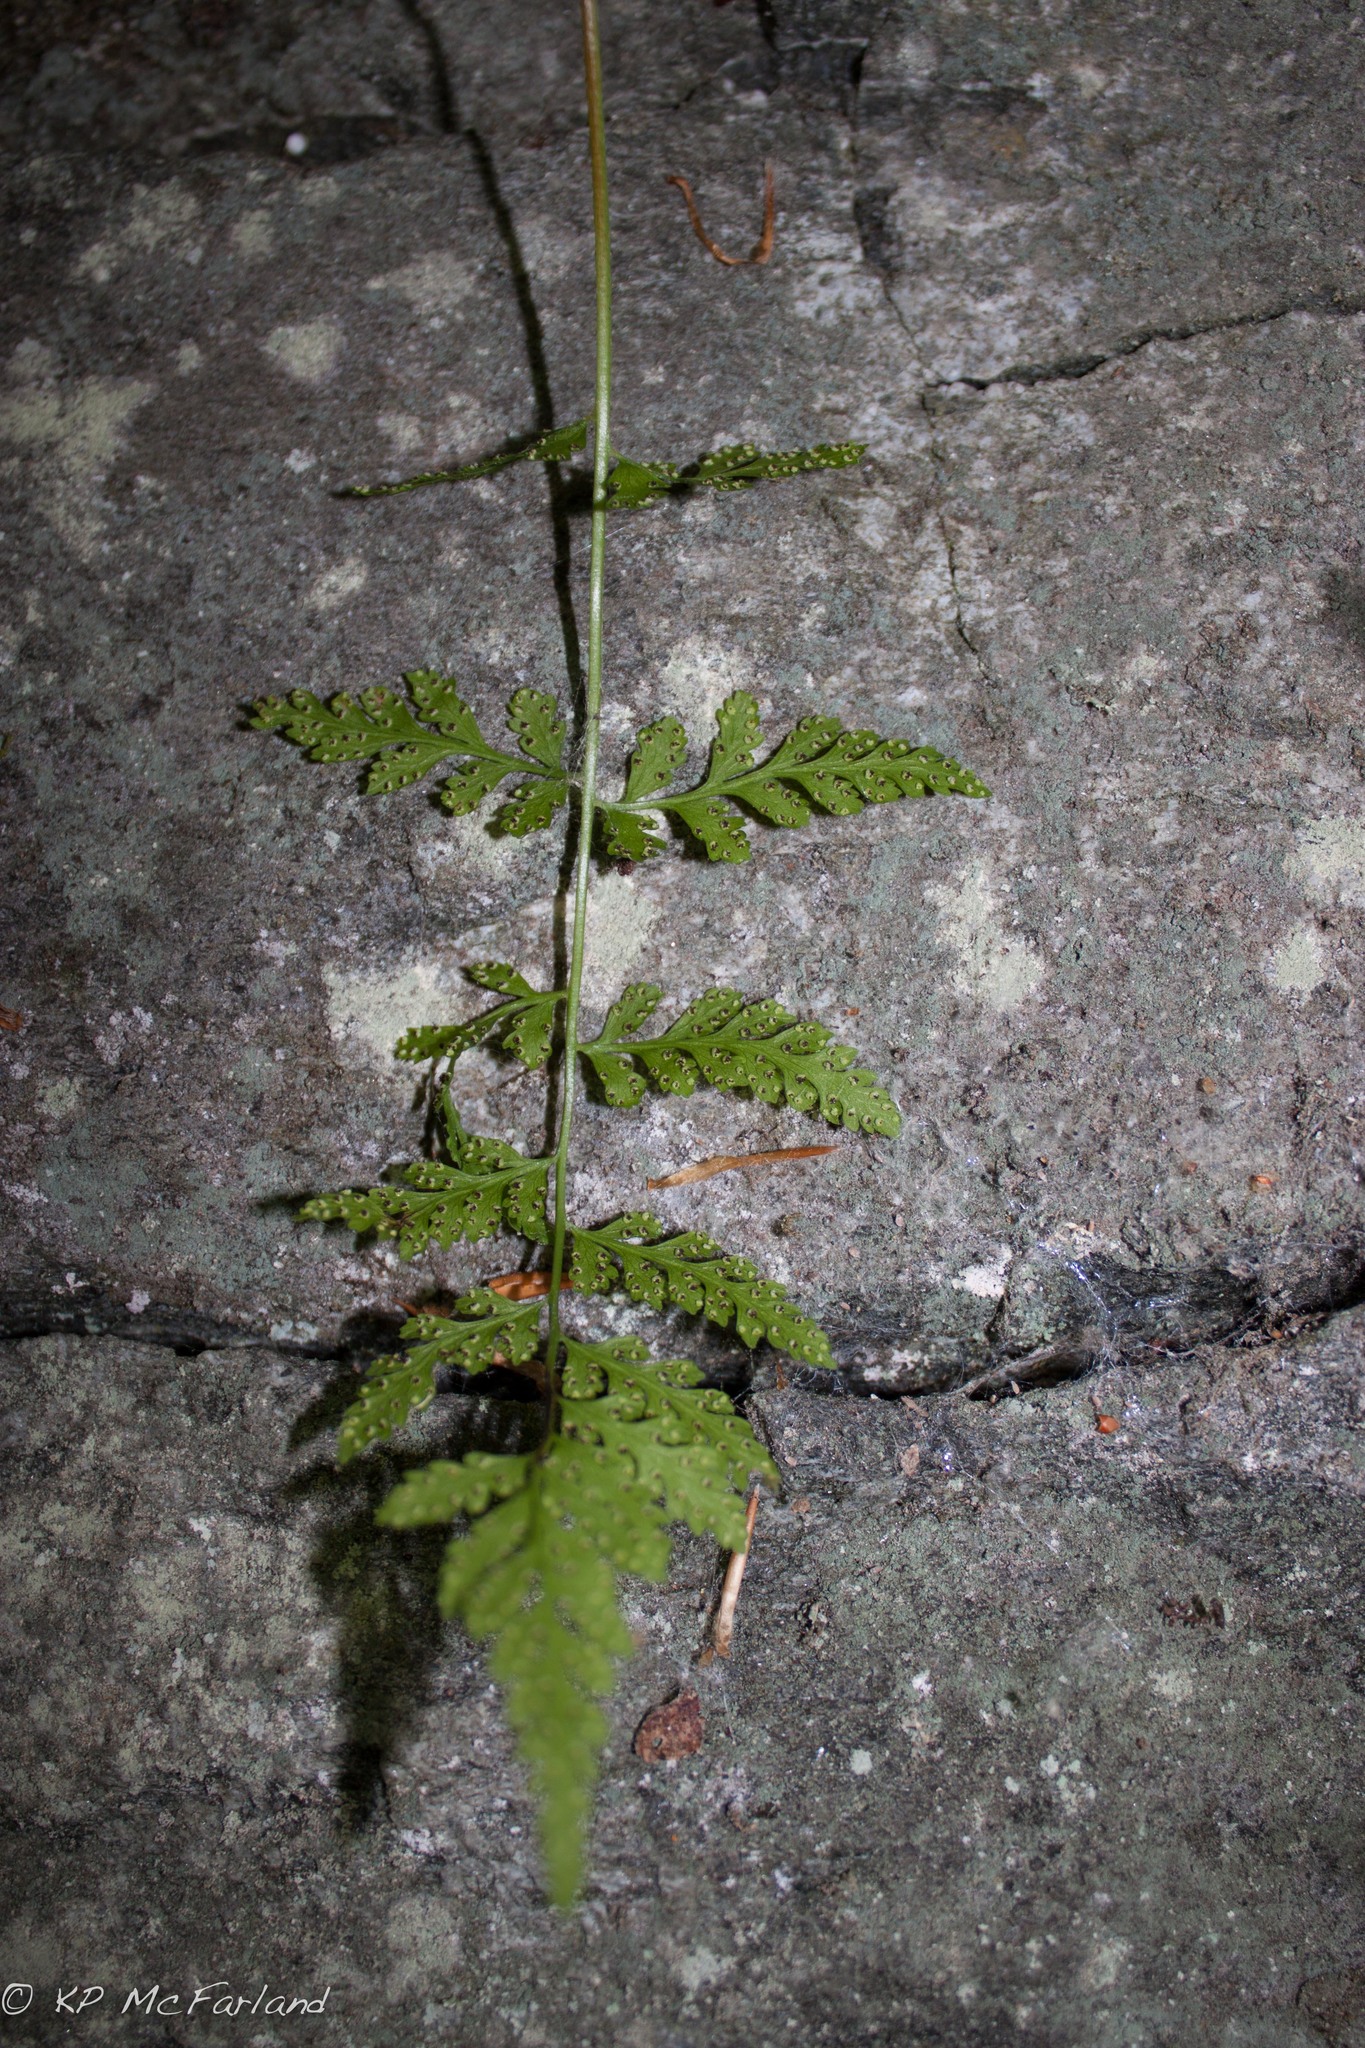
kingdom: Plantae
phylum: Tracheophyta
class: Polypodiopsida
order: Polypodiales
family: Cystopteridaceae
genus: Cystopteris
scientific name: Cystopteris fragilis
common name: Brittle bladder fern
